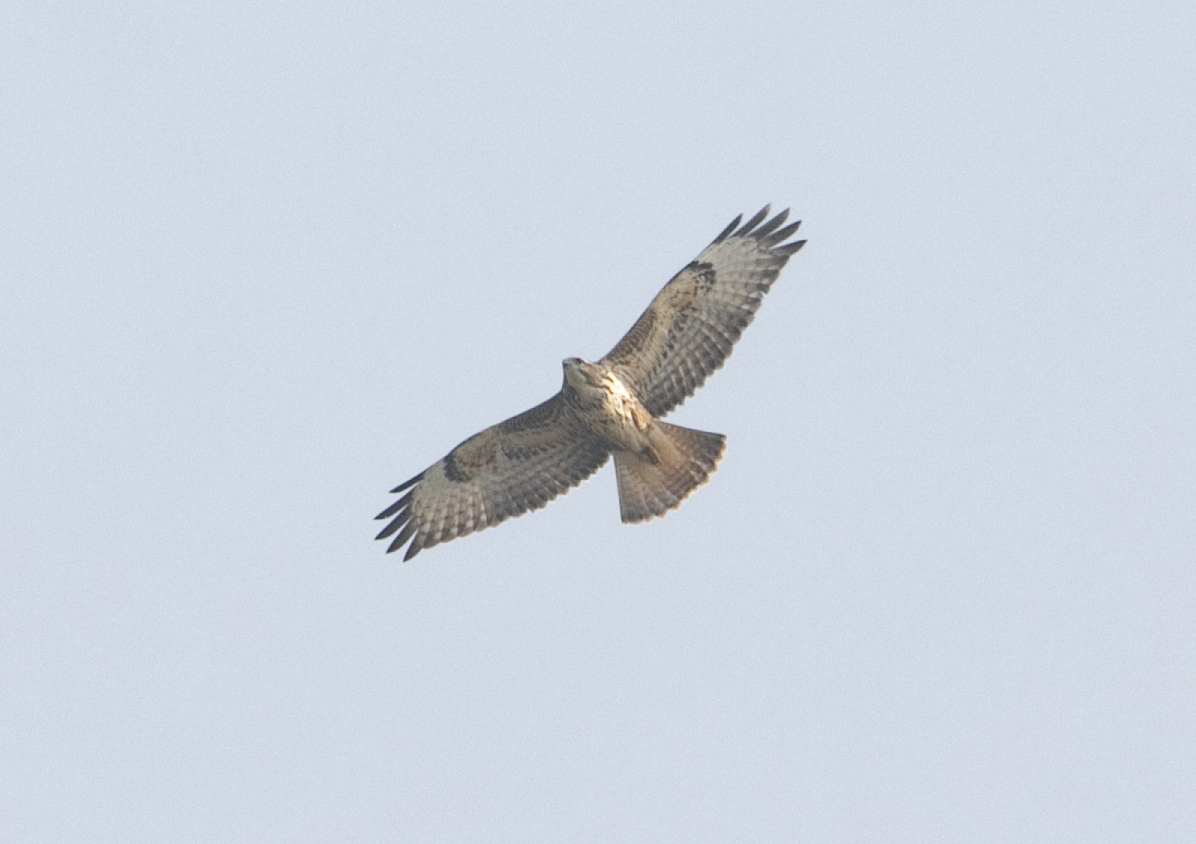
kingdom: Animalia
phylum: Chordata
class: Aves
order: Accipitriformes
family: Accipitridae
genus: Buteo
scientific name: Buteo buteo
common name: Common buzzard
